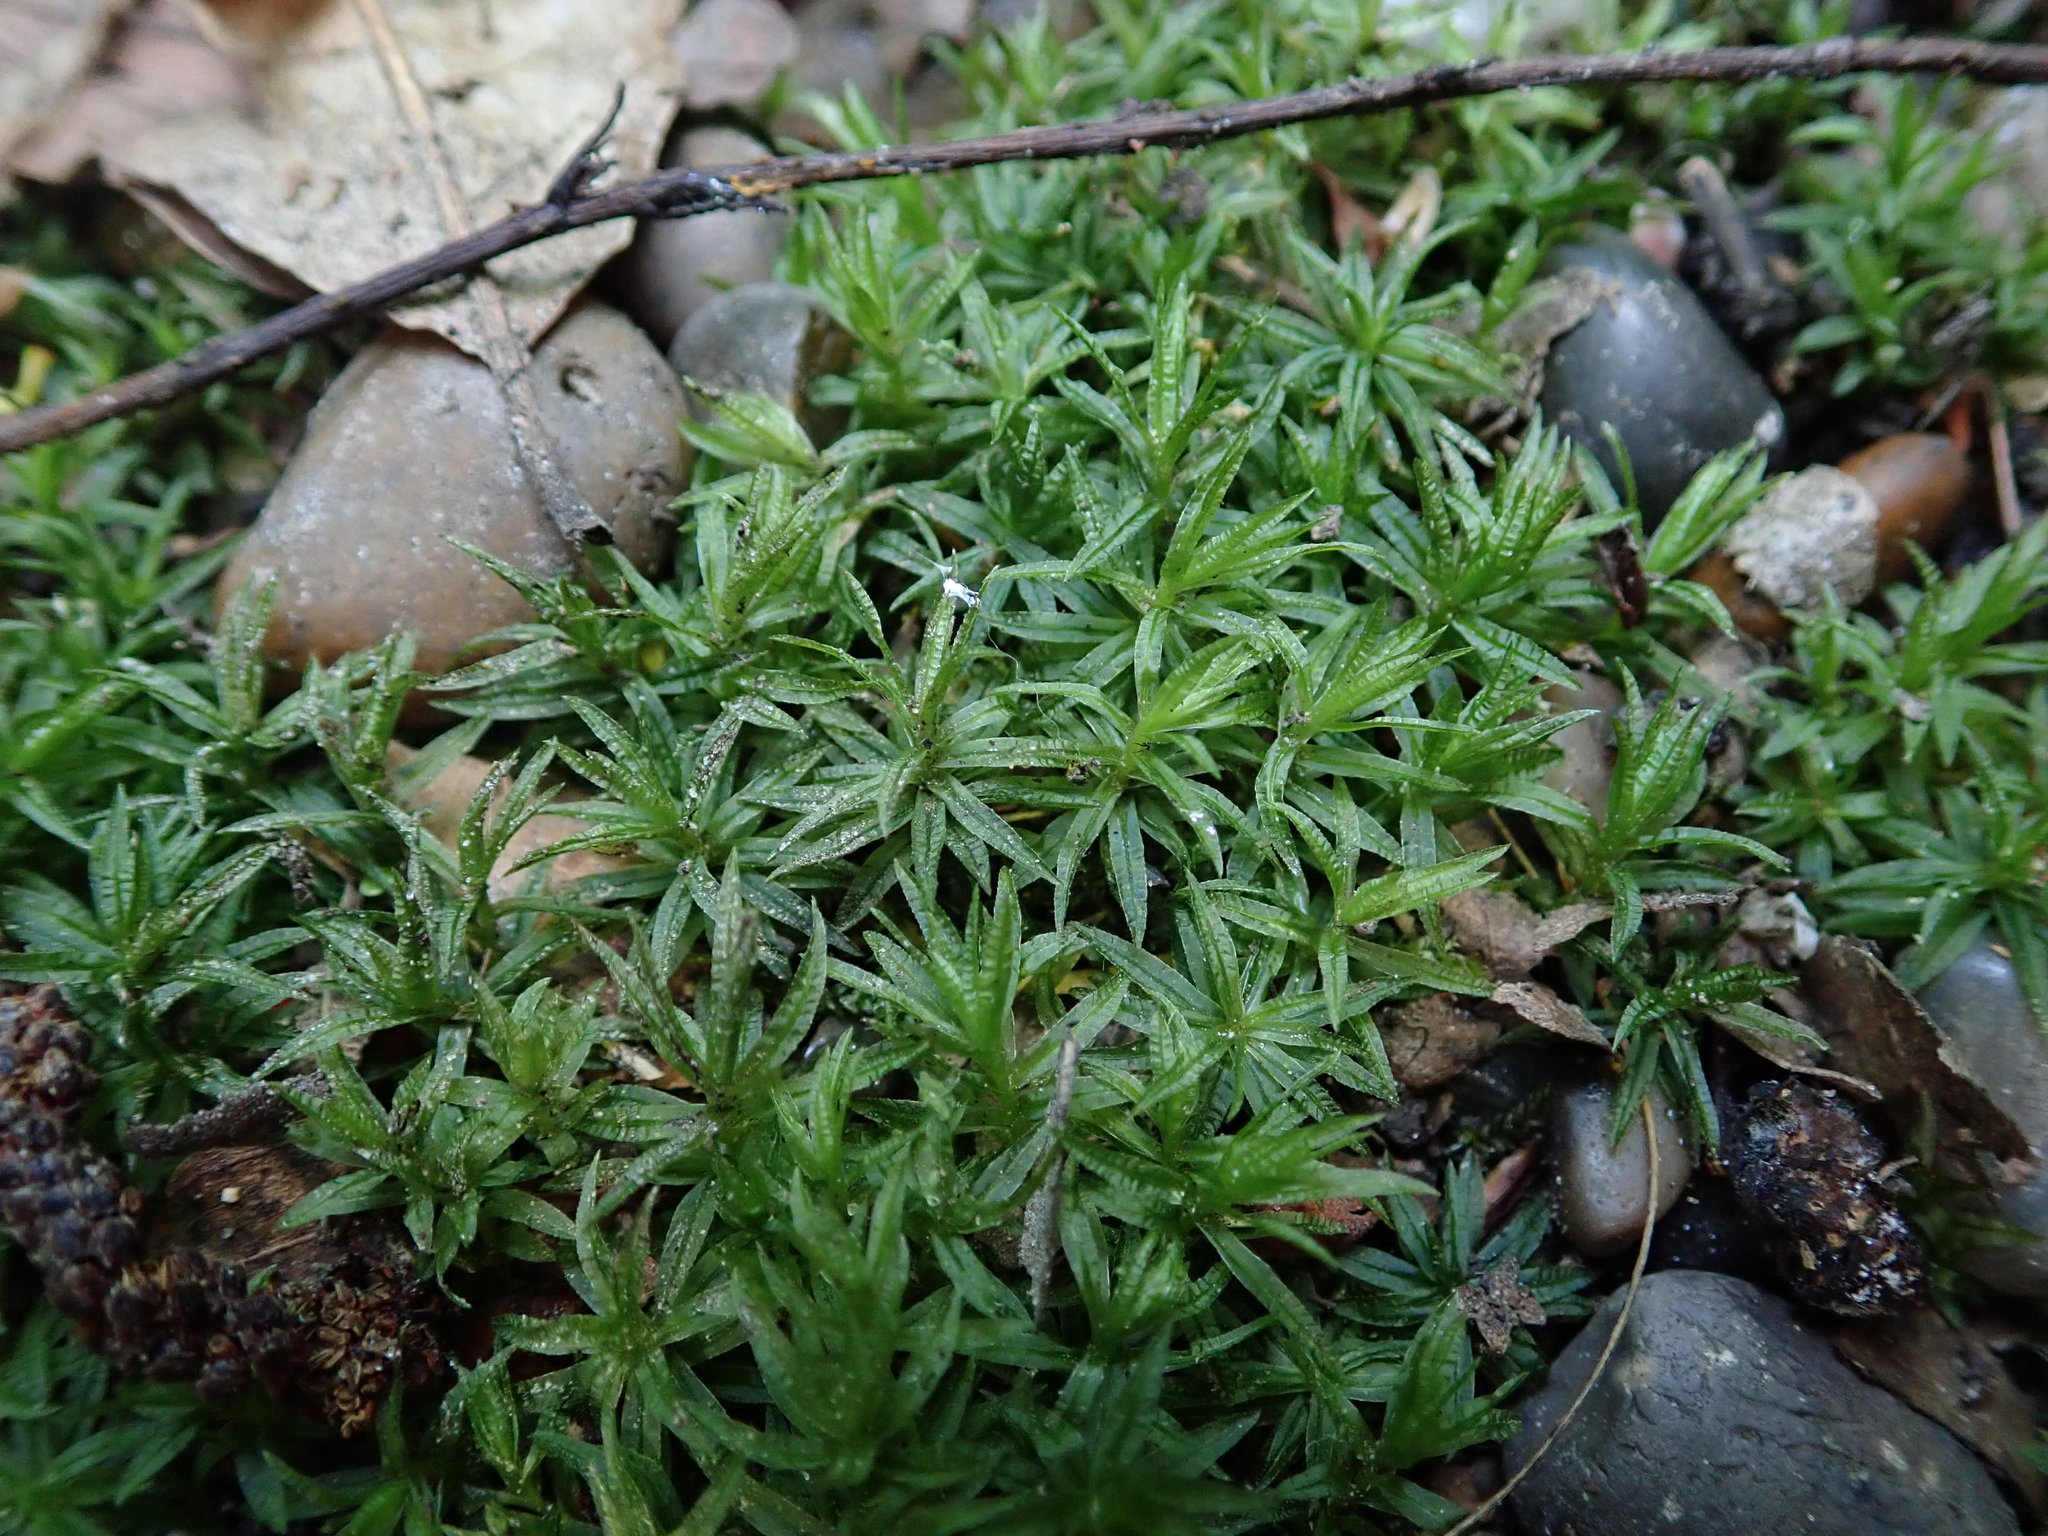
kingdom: Plantae
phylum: Bryophyta
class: Polytrichopsida
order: Polytrichales
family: Polytrichaceae
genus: Atrichum
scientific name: Atrichum undulatum
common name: Common smoothcap
